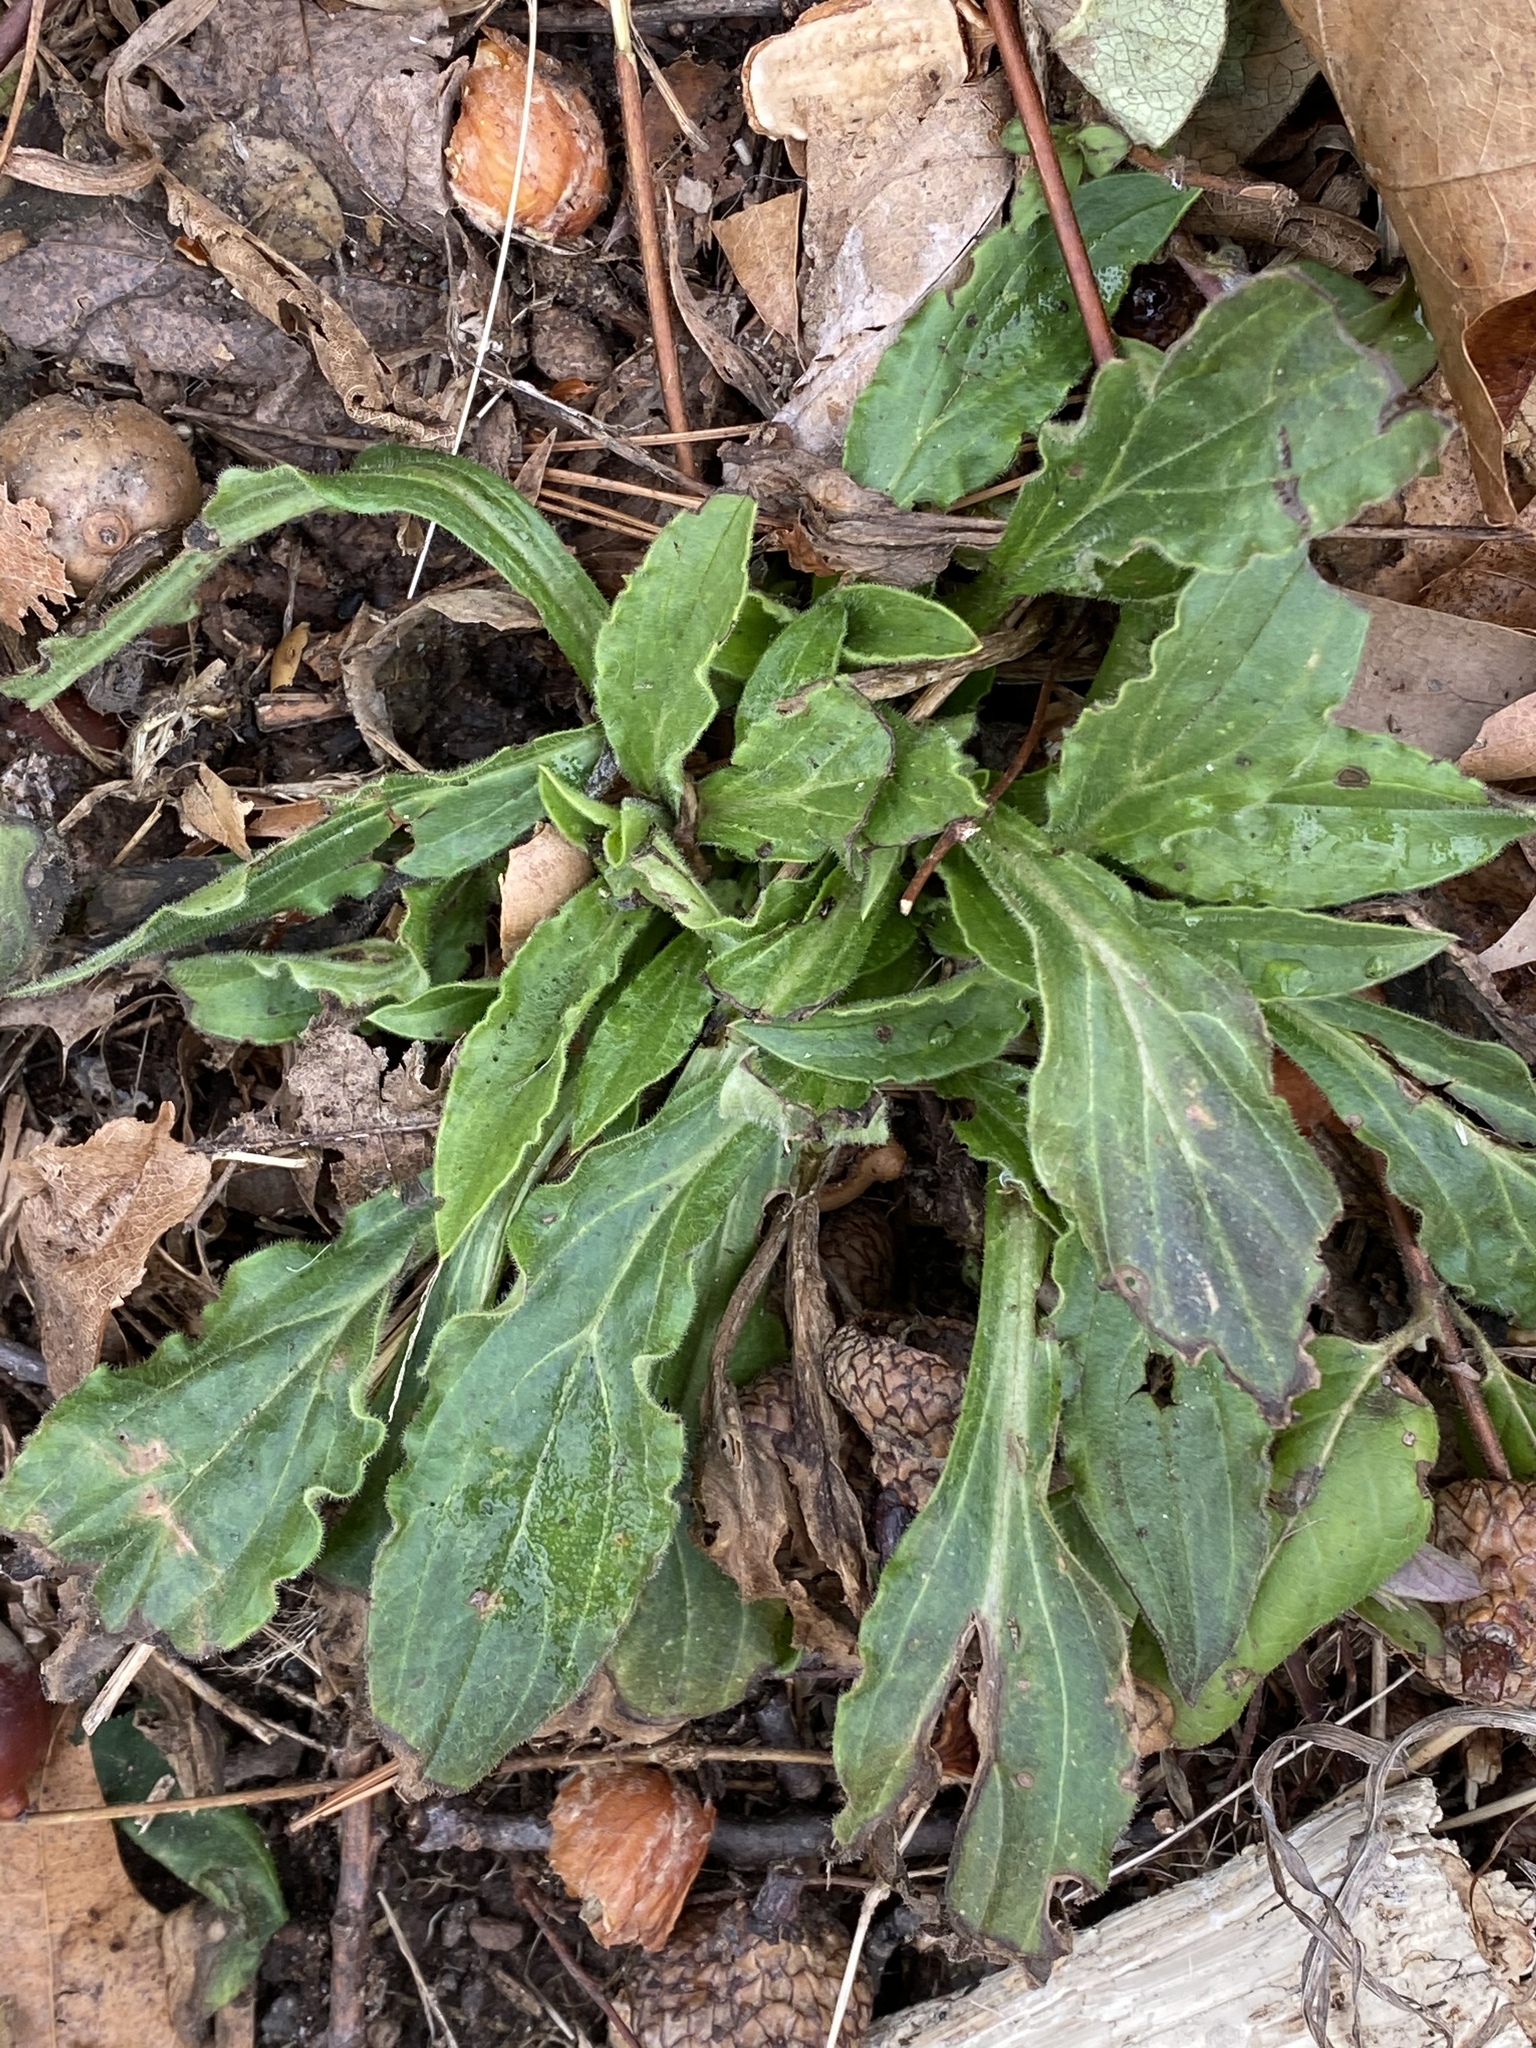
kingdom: Plantae
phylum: Tracheophyta
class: Magnoliopsida
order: Caryophyllales
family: Caryophyllaceae
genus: Silene
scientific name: Silene latifolia
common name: White campion
